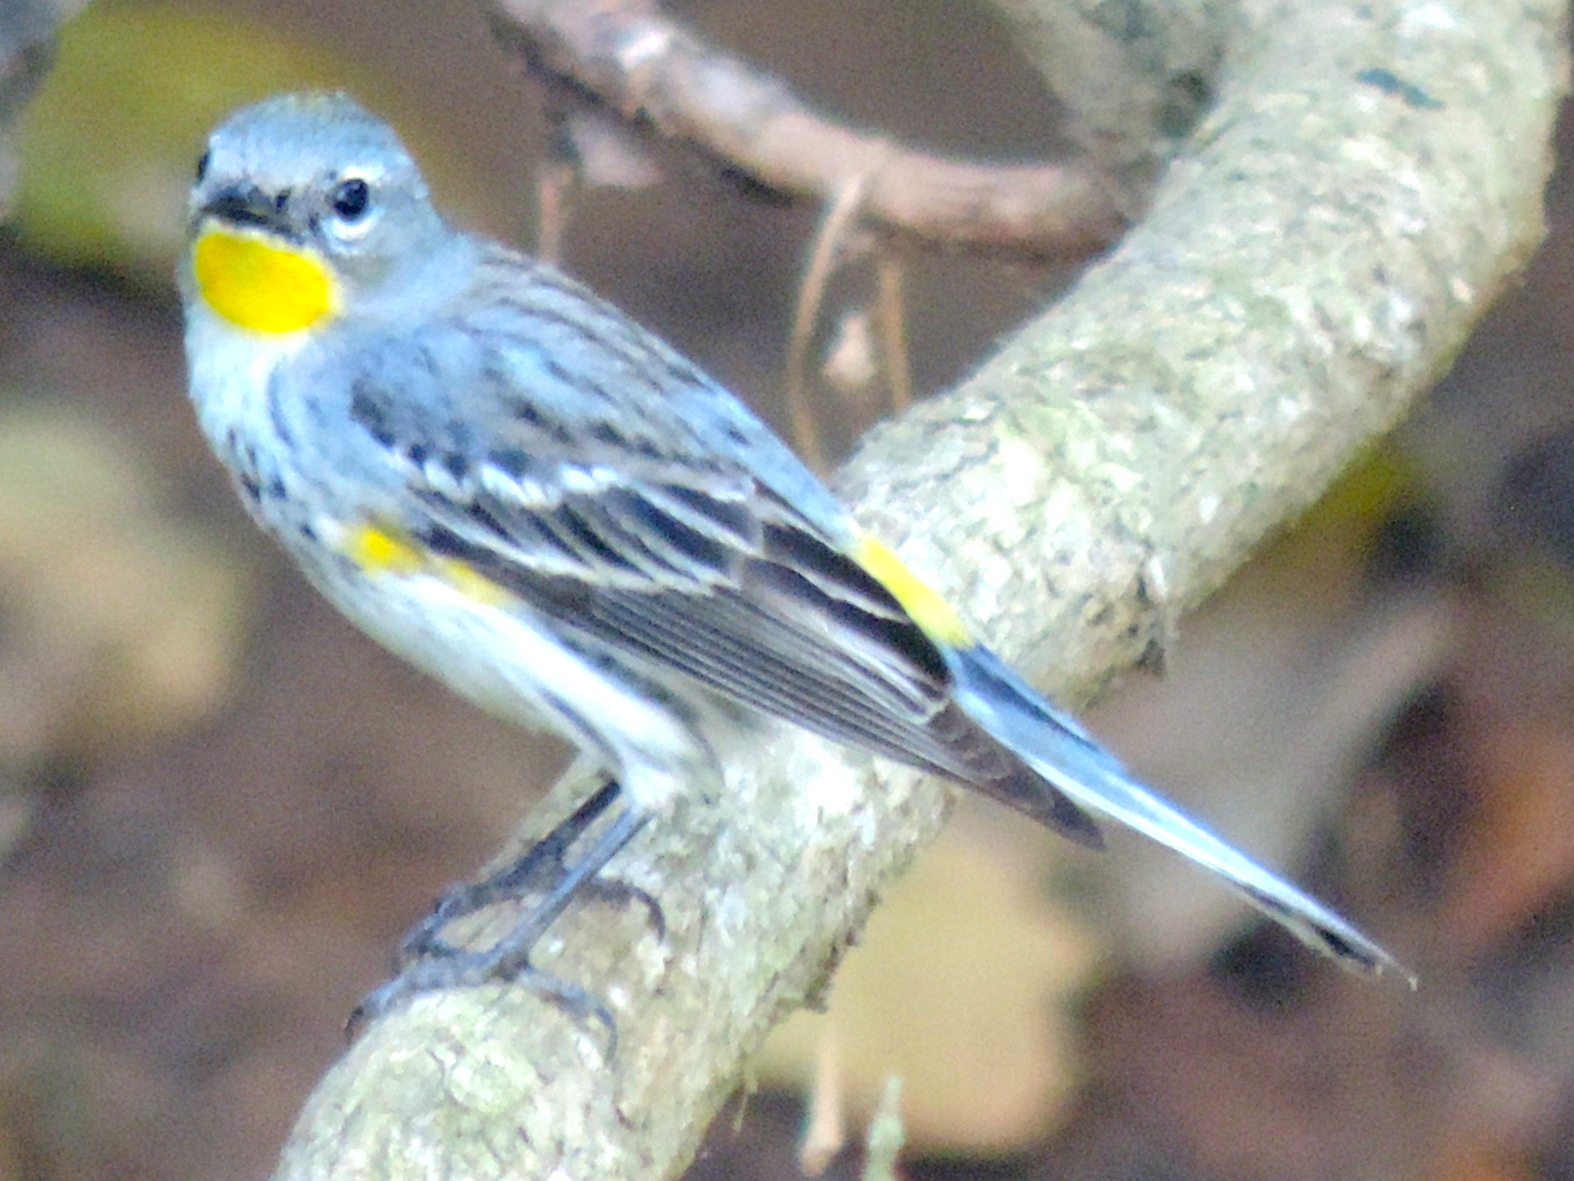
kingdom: Animalia
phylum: Chordata
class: Aves
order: Passeriformes
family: Parulidae
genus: Setophaga
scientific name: Setophaga coronata
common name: Myrtle warbler
